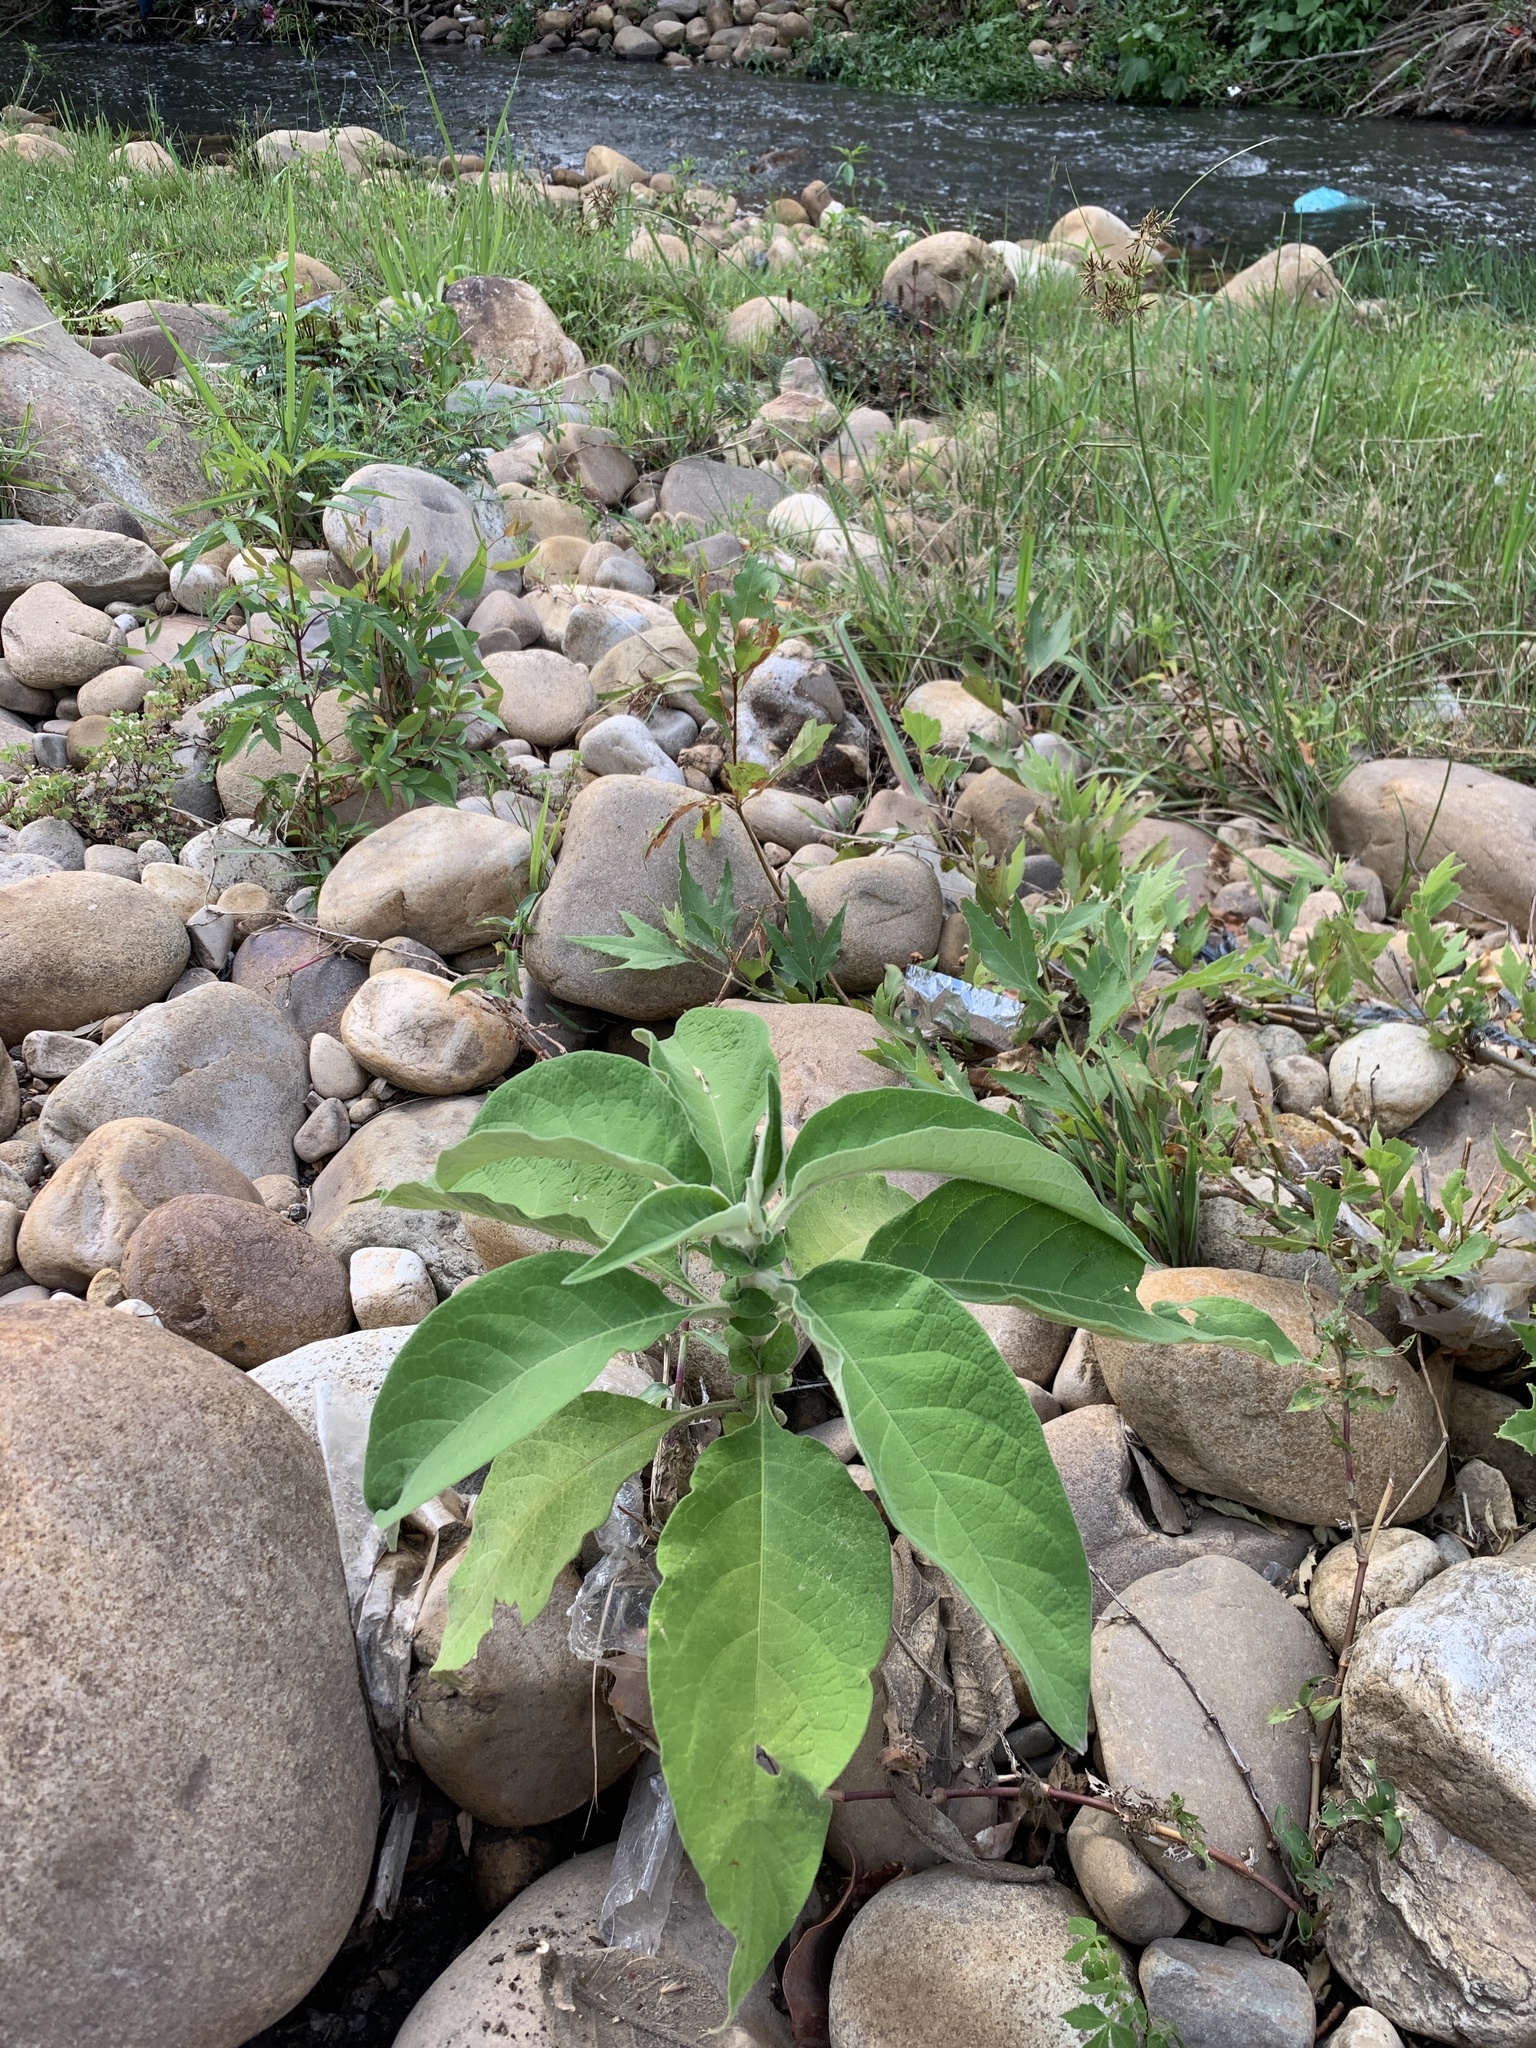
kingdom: Plantae
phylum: Tracheophyta
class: Magnoliopsida
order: Solanales
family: Solanaceae
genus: Solanum
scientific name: Solanum mauritianum
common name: Earleaf nightshade
